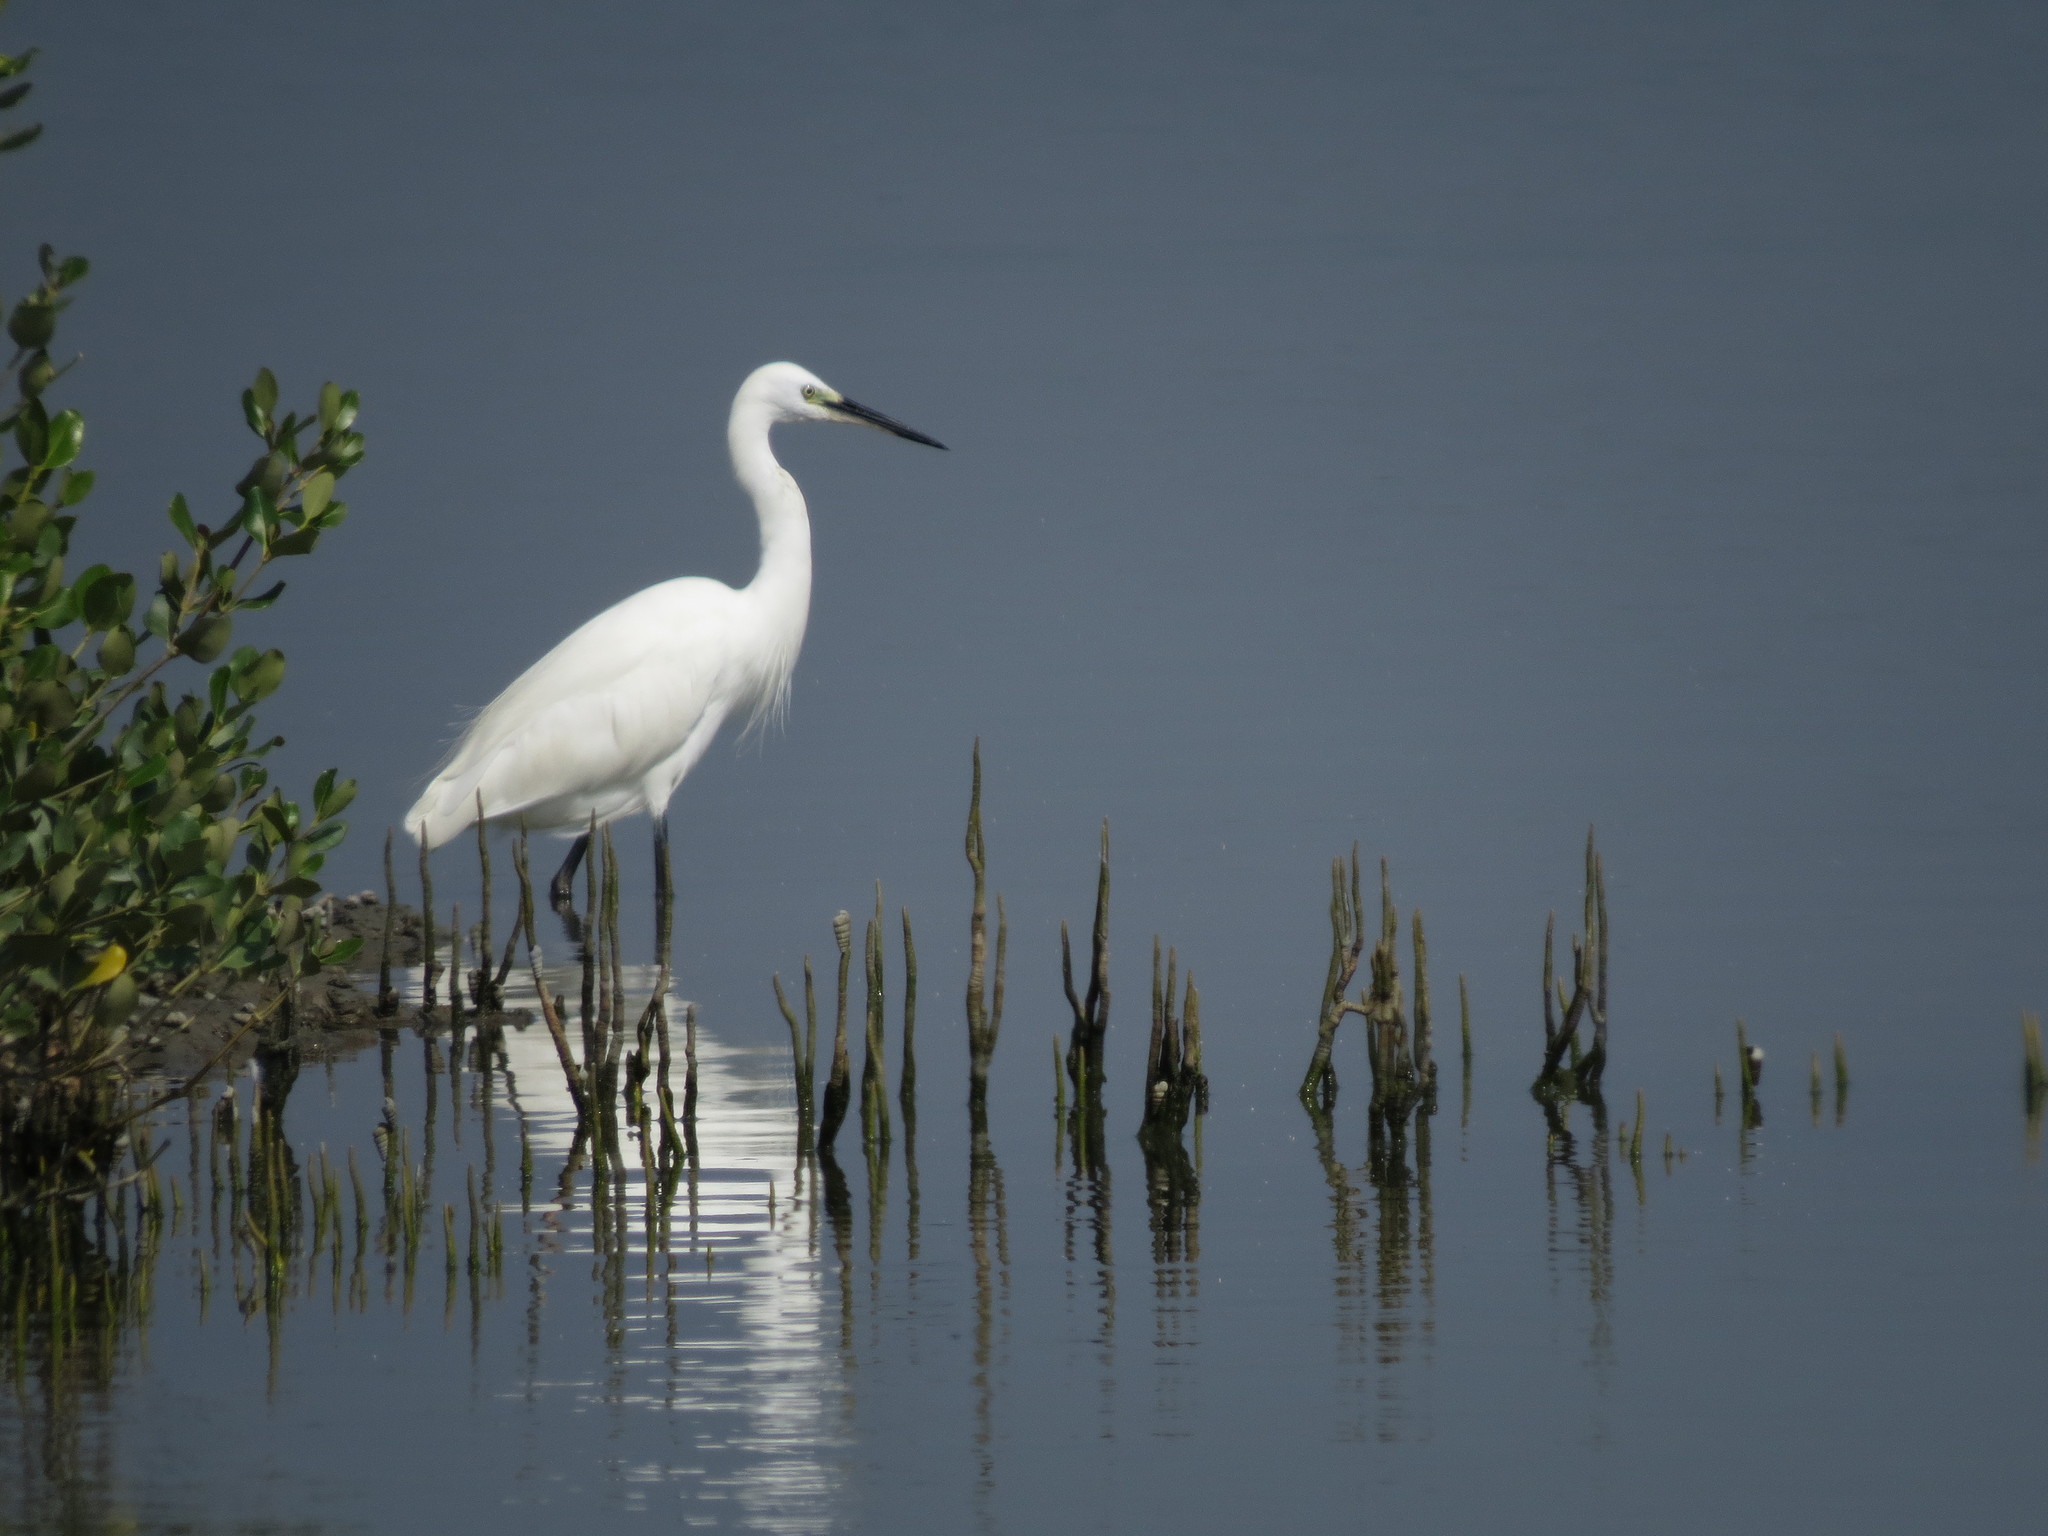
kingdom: Animalia
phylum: Chordata
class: Aves
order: Pelecaniformes
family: Ardeidae
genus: Egretta
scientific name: Egretta garzetta
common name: Little egret
